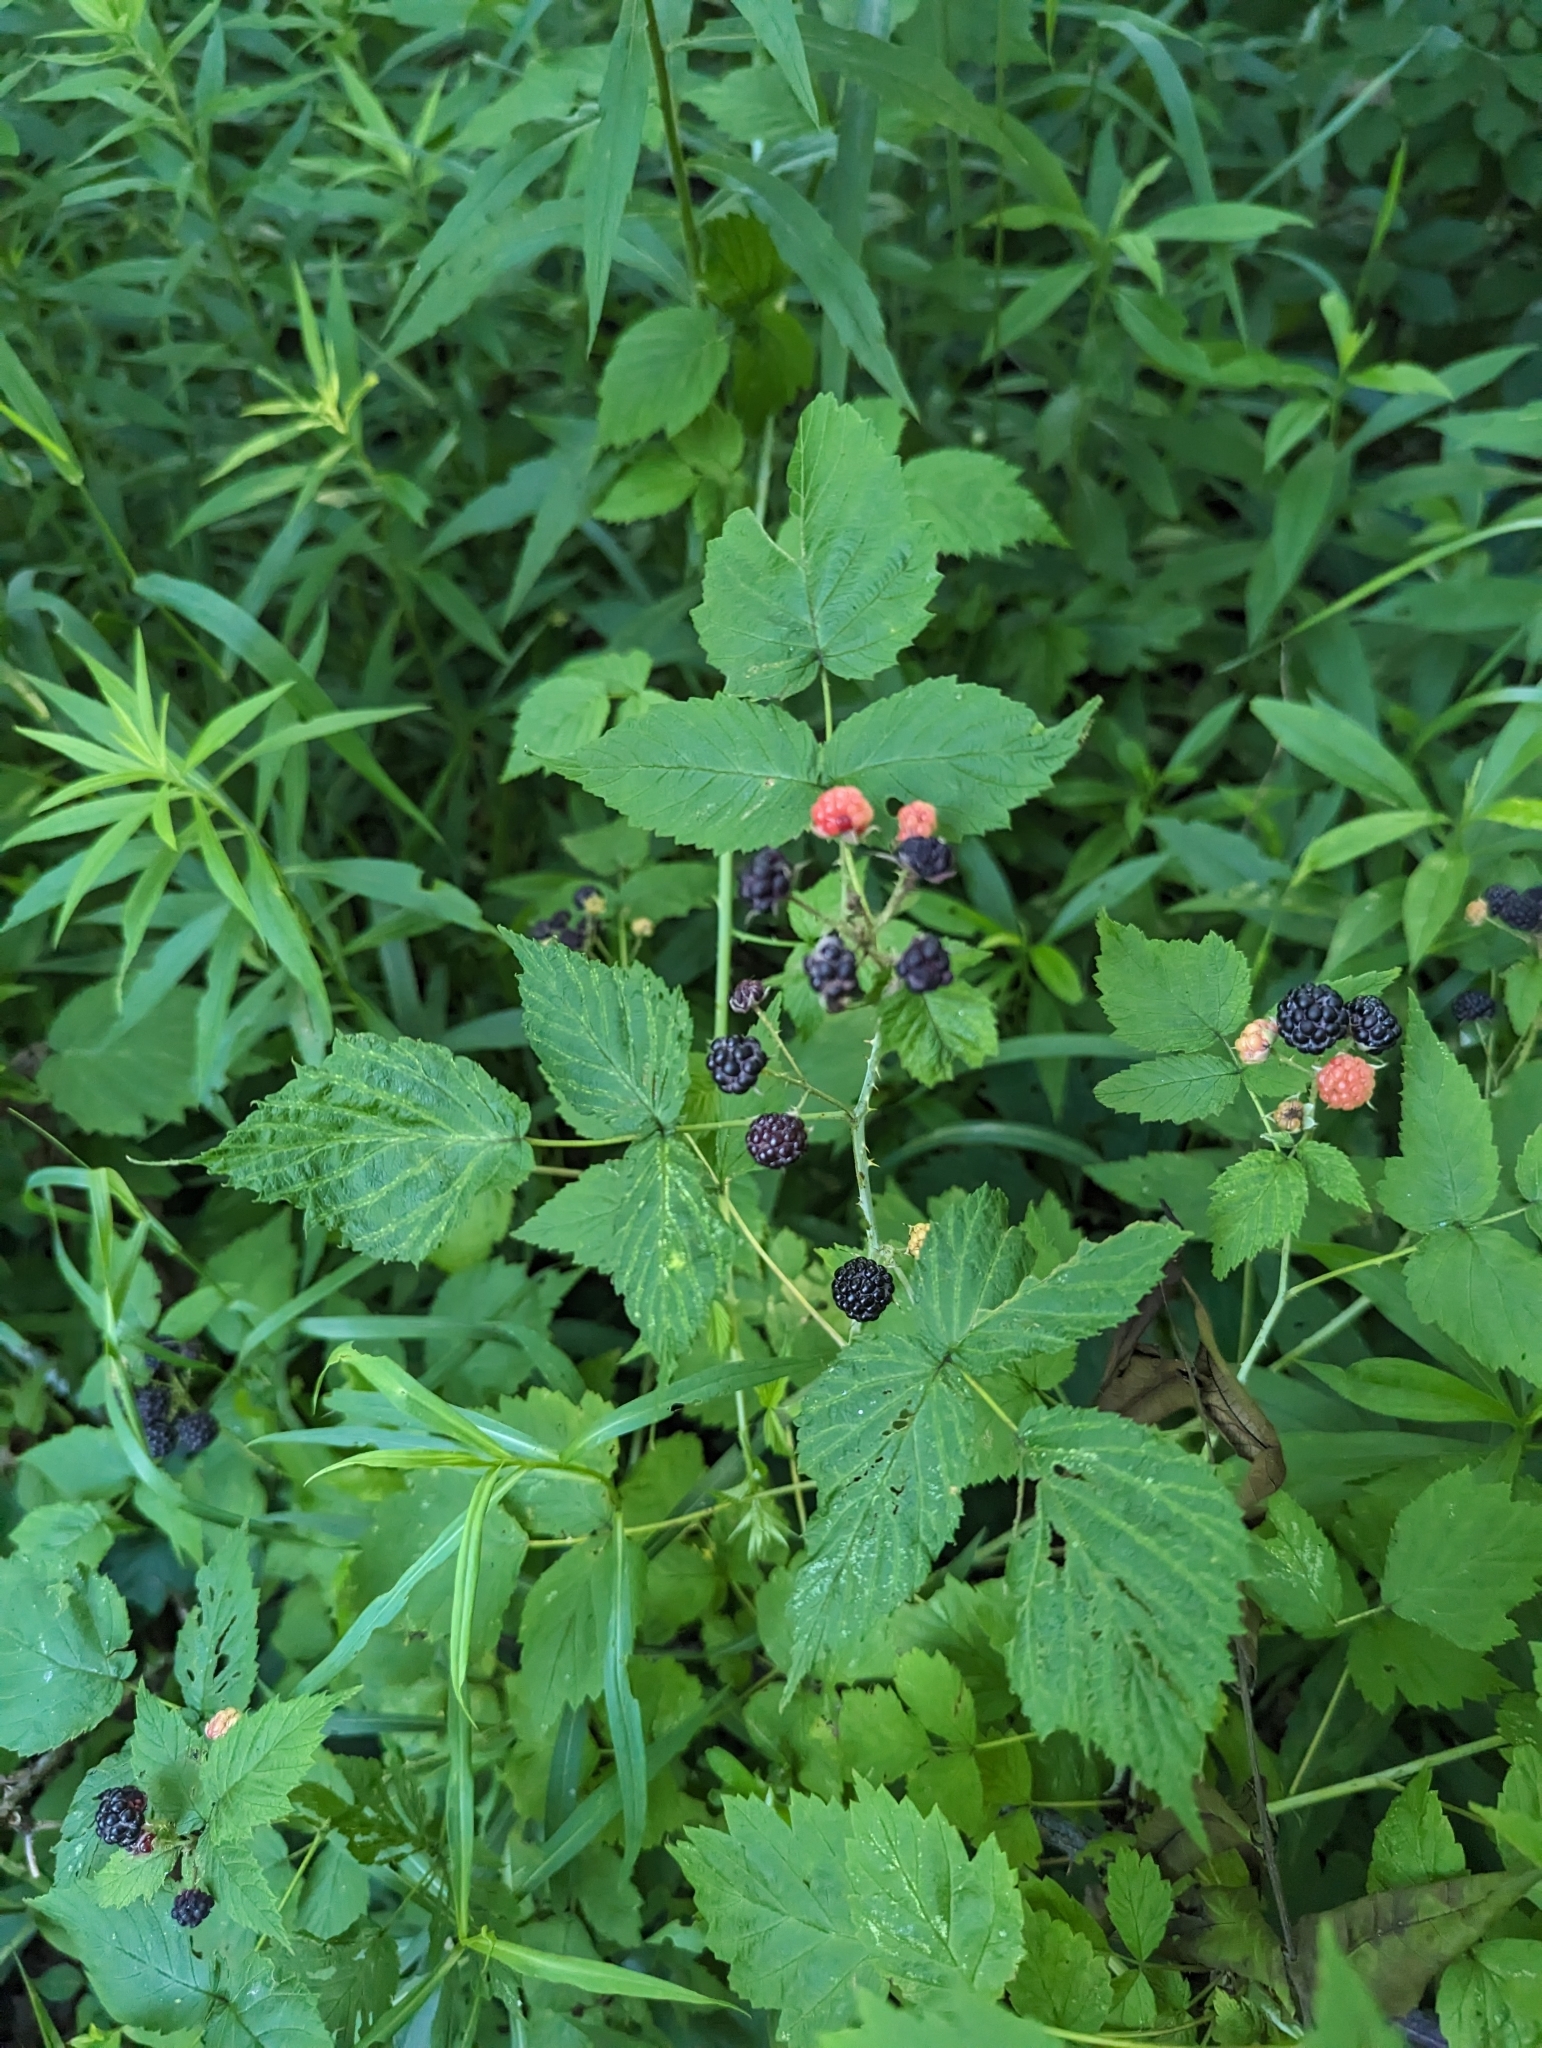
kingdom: Plantae
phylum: Tracheophyta
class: Magnoliopsida
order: Rosales
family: Rosaceae
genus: Rubus
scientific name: Rubus occidentalis
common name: Black raspberry
